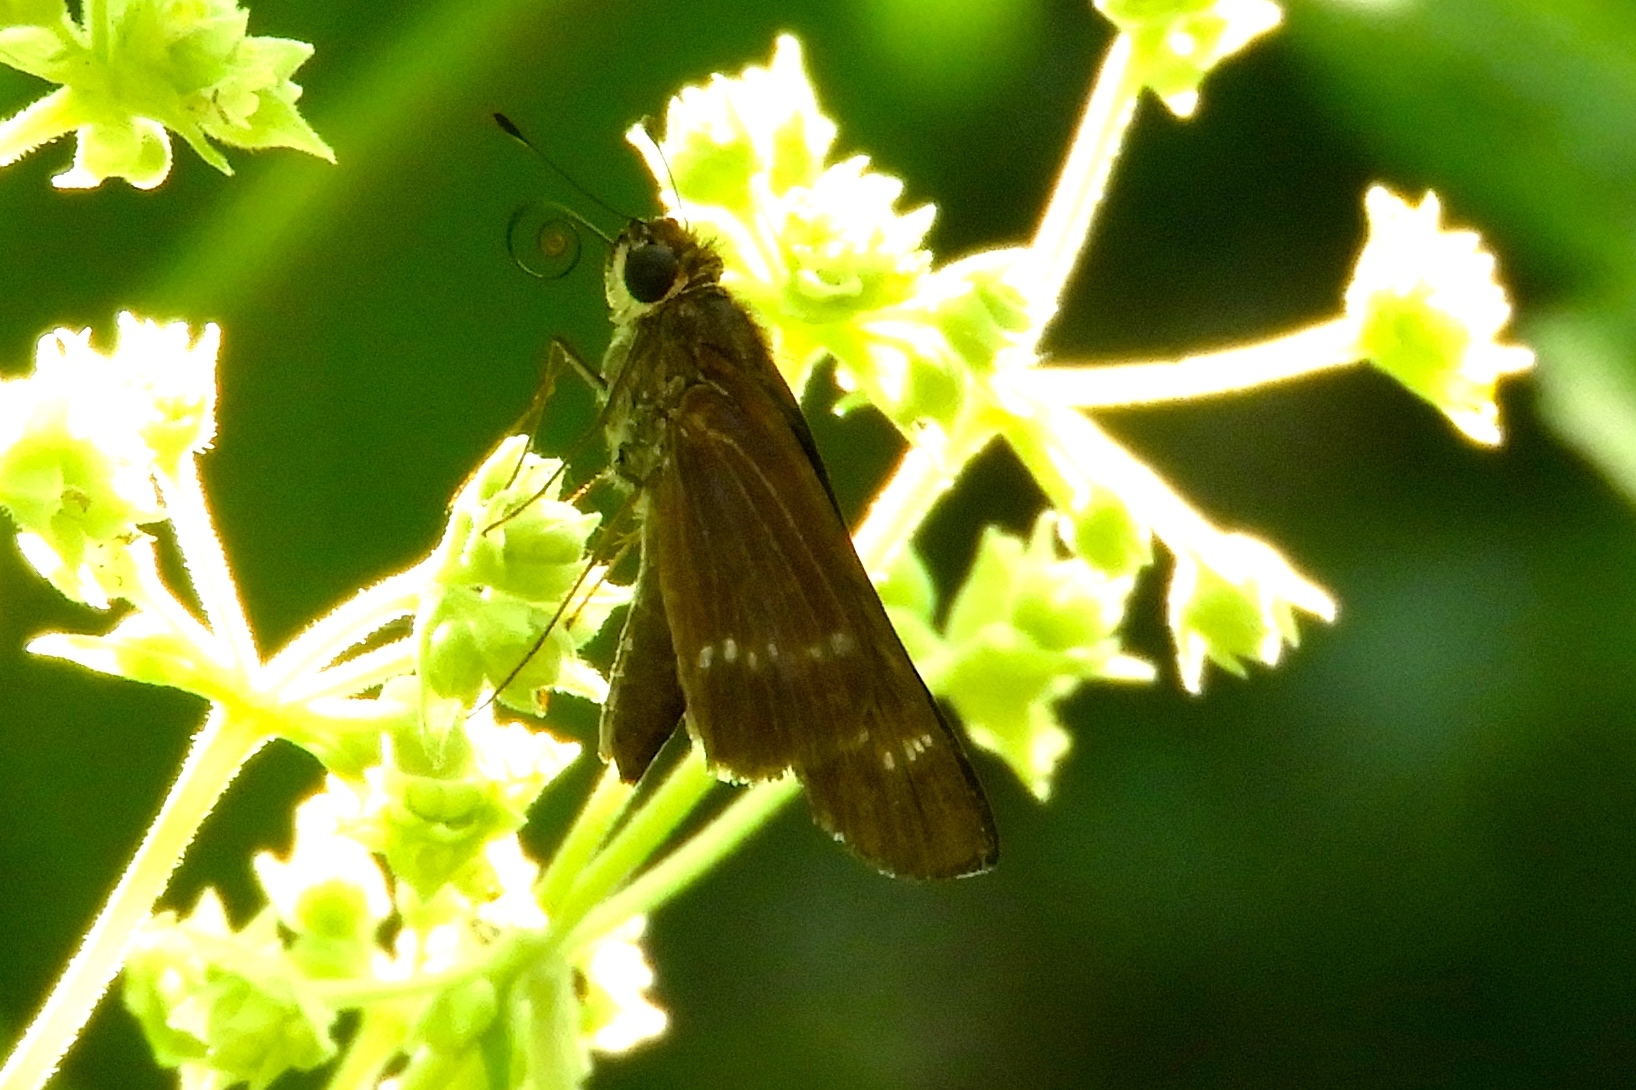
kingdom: Animalia
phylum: Arthropoda
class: Insecta
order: Lepidoptera
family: Hesperiidae
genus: Panoquina
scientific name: Panoquina
